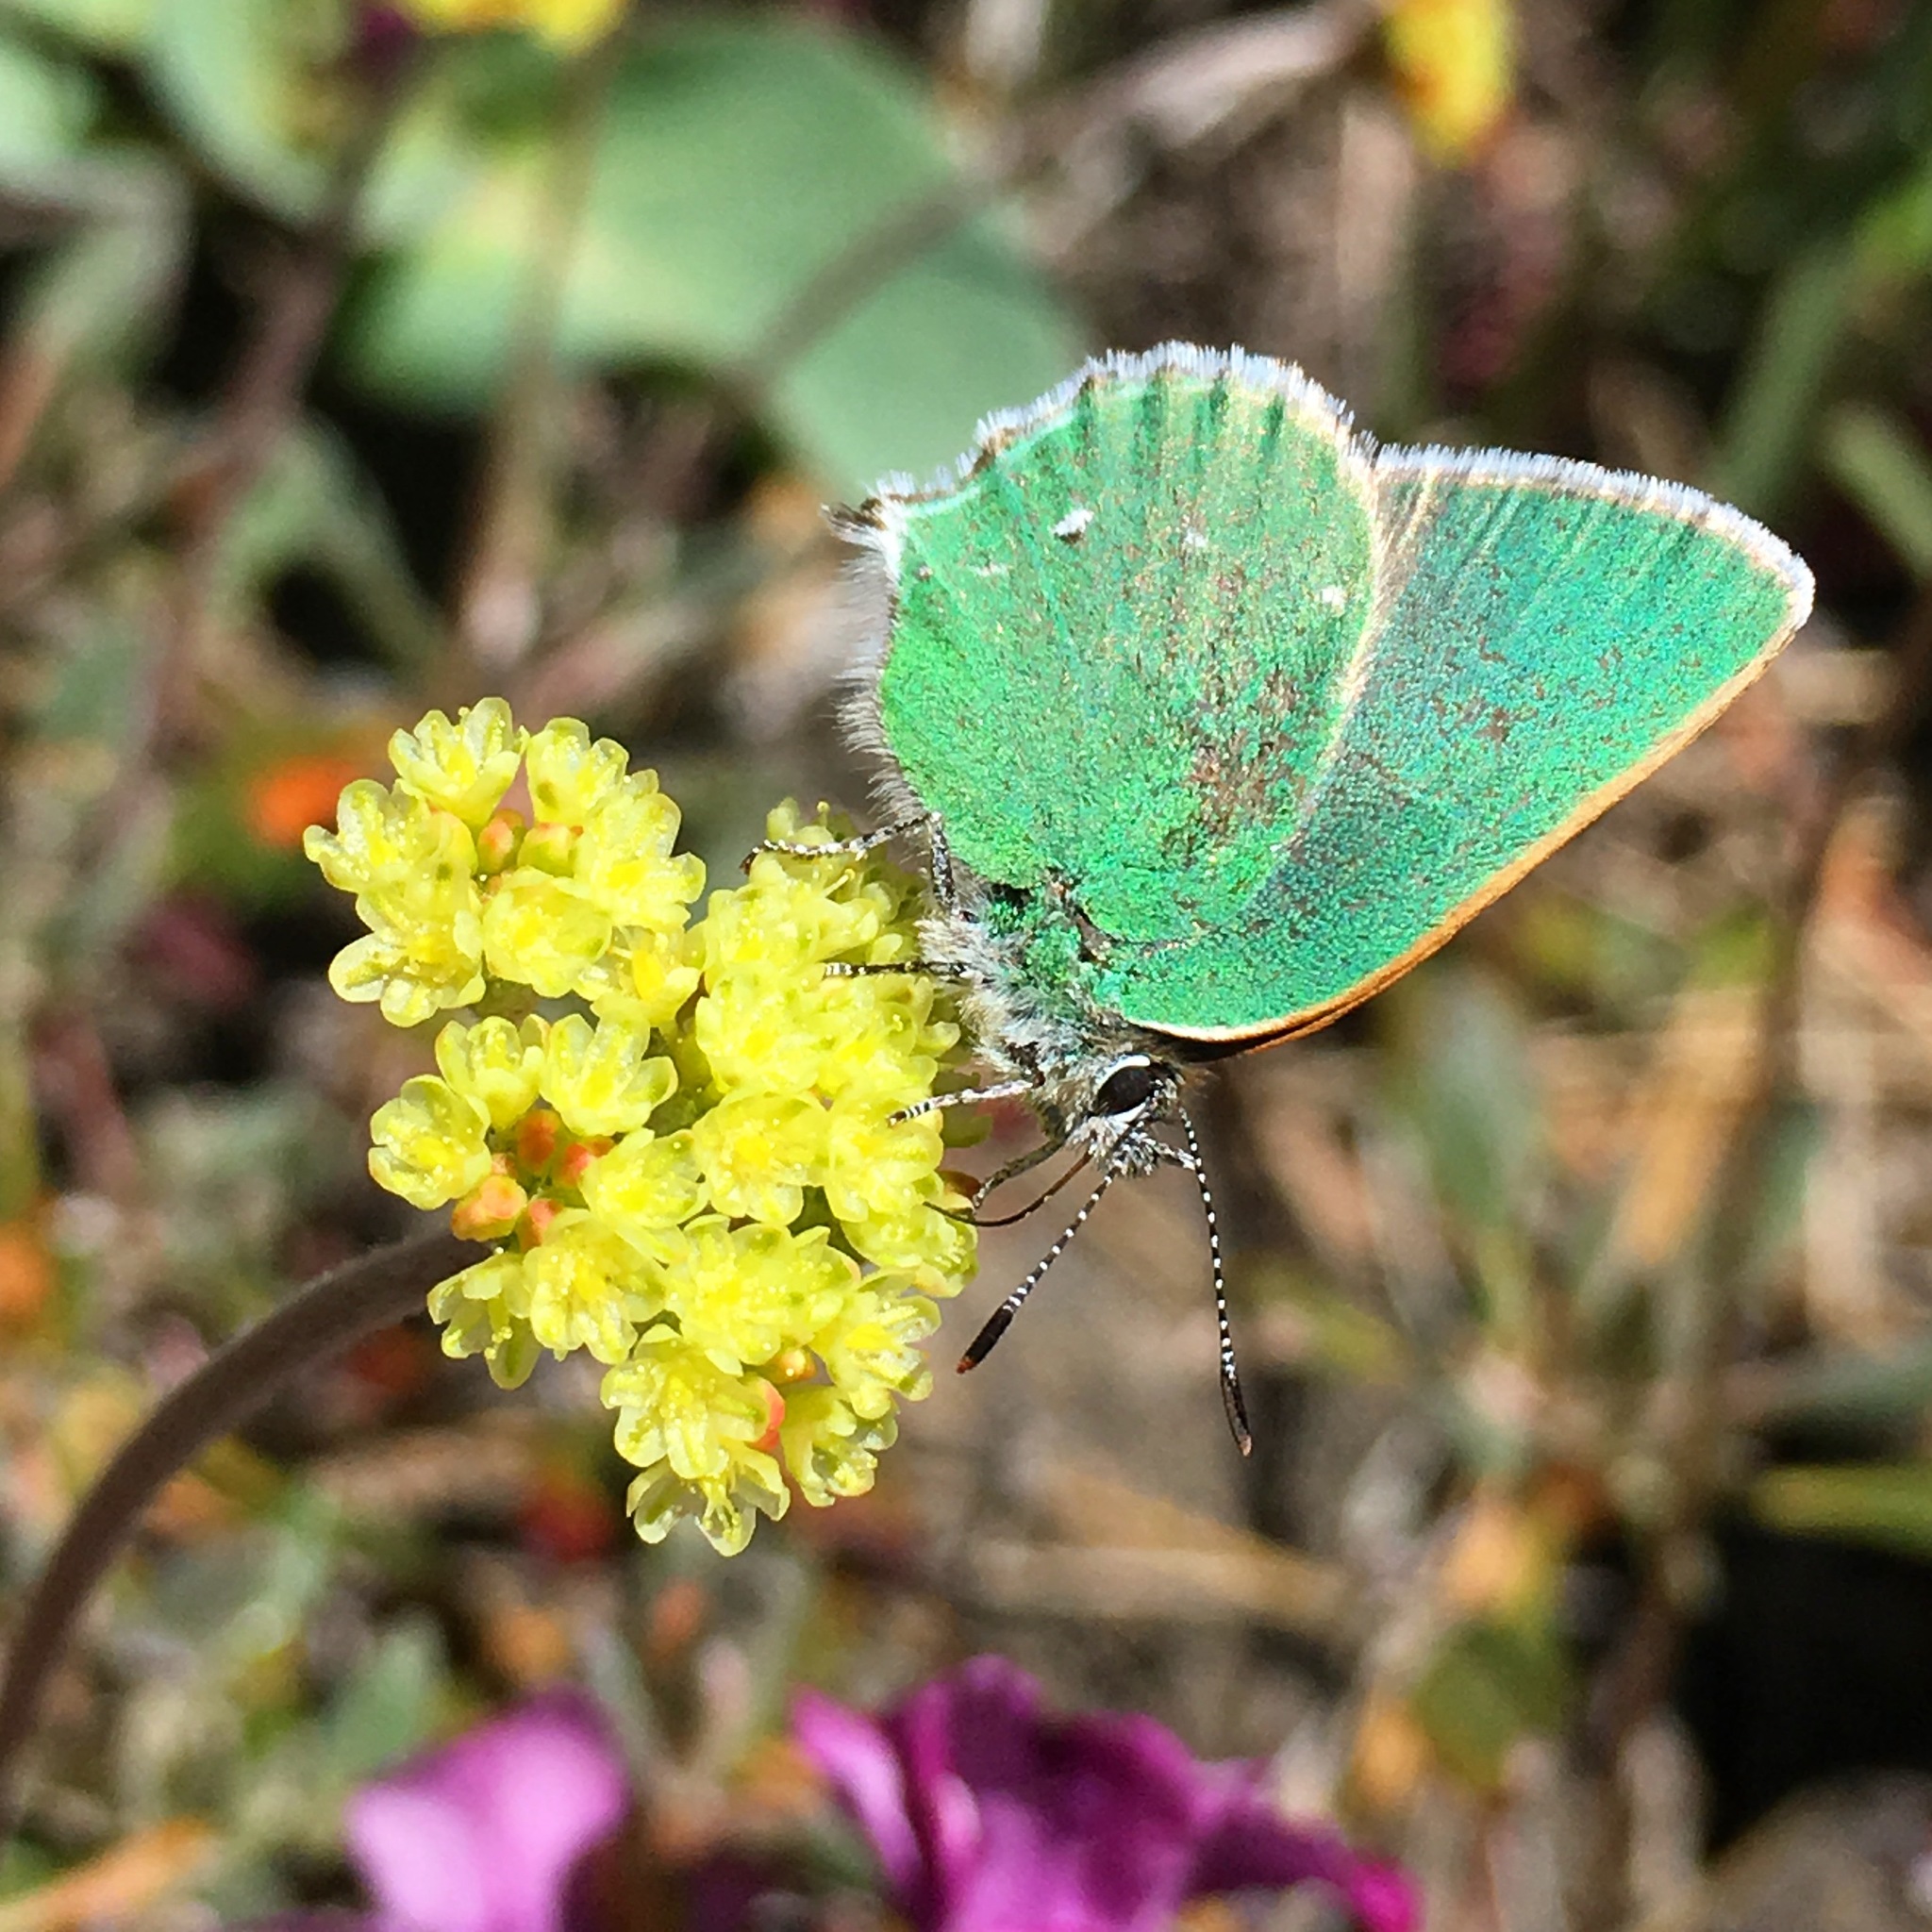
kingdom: Animalia
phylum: Arthropoda
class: Insecta
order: Lepidoptera
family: Lycaenidae
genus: Thecla
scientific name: Thecla sheridanii
